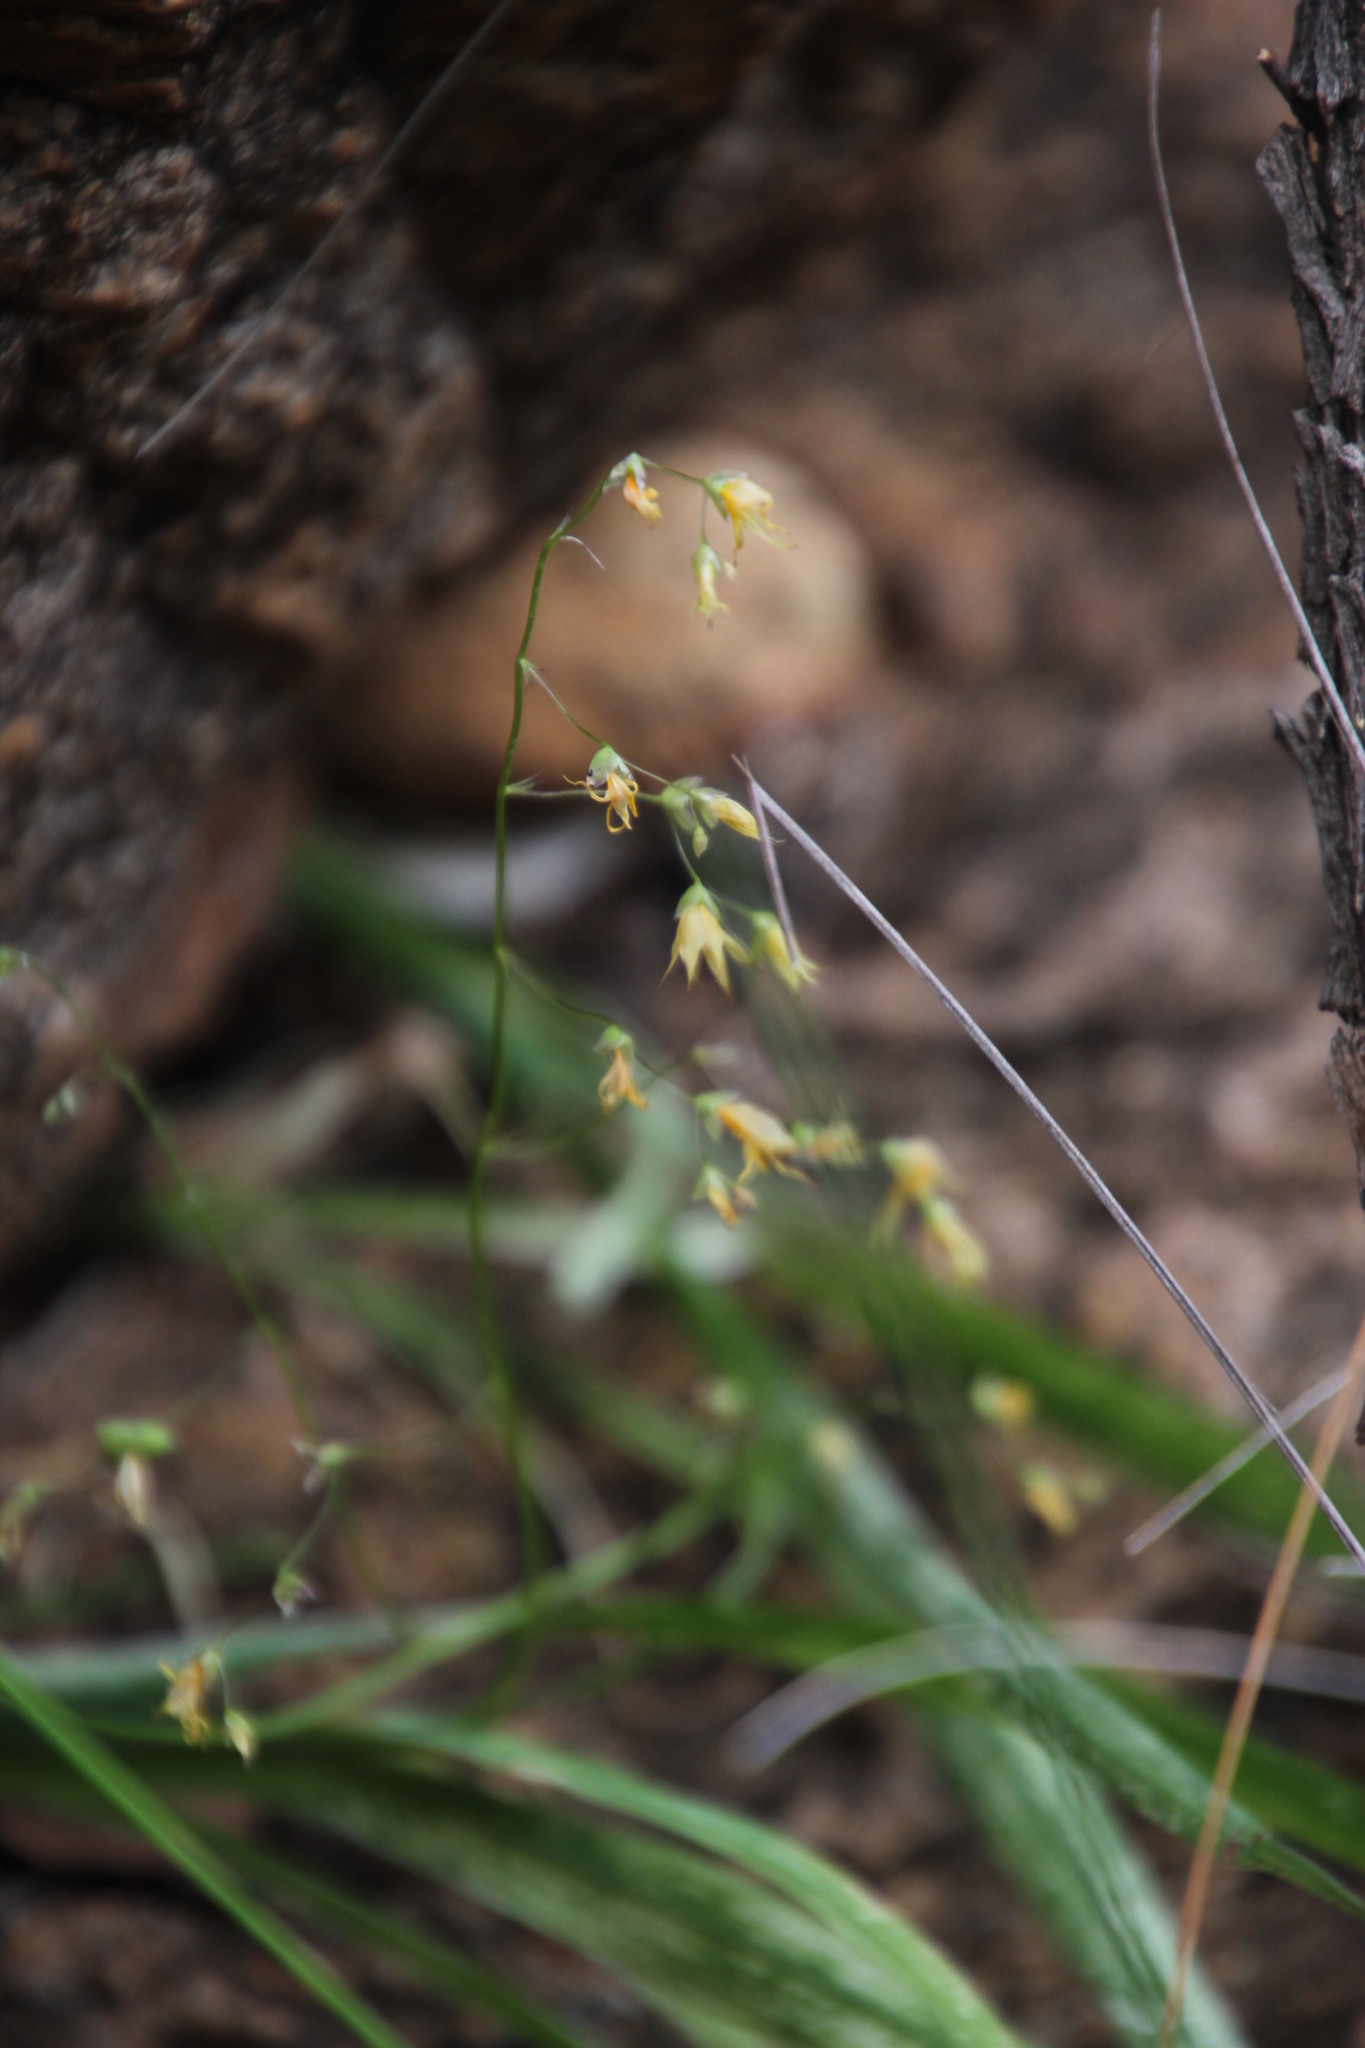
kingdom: Plantae
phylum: Tracheophyta
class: Liliopsida
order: Asparagales
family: Iridaceae
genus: Melasphaerula
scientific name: Melasphaerula graminea
